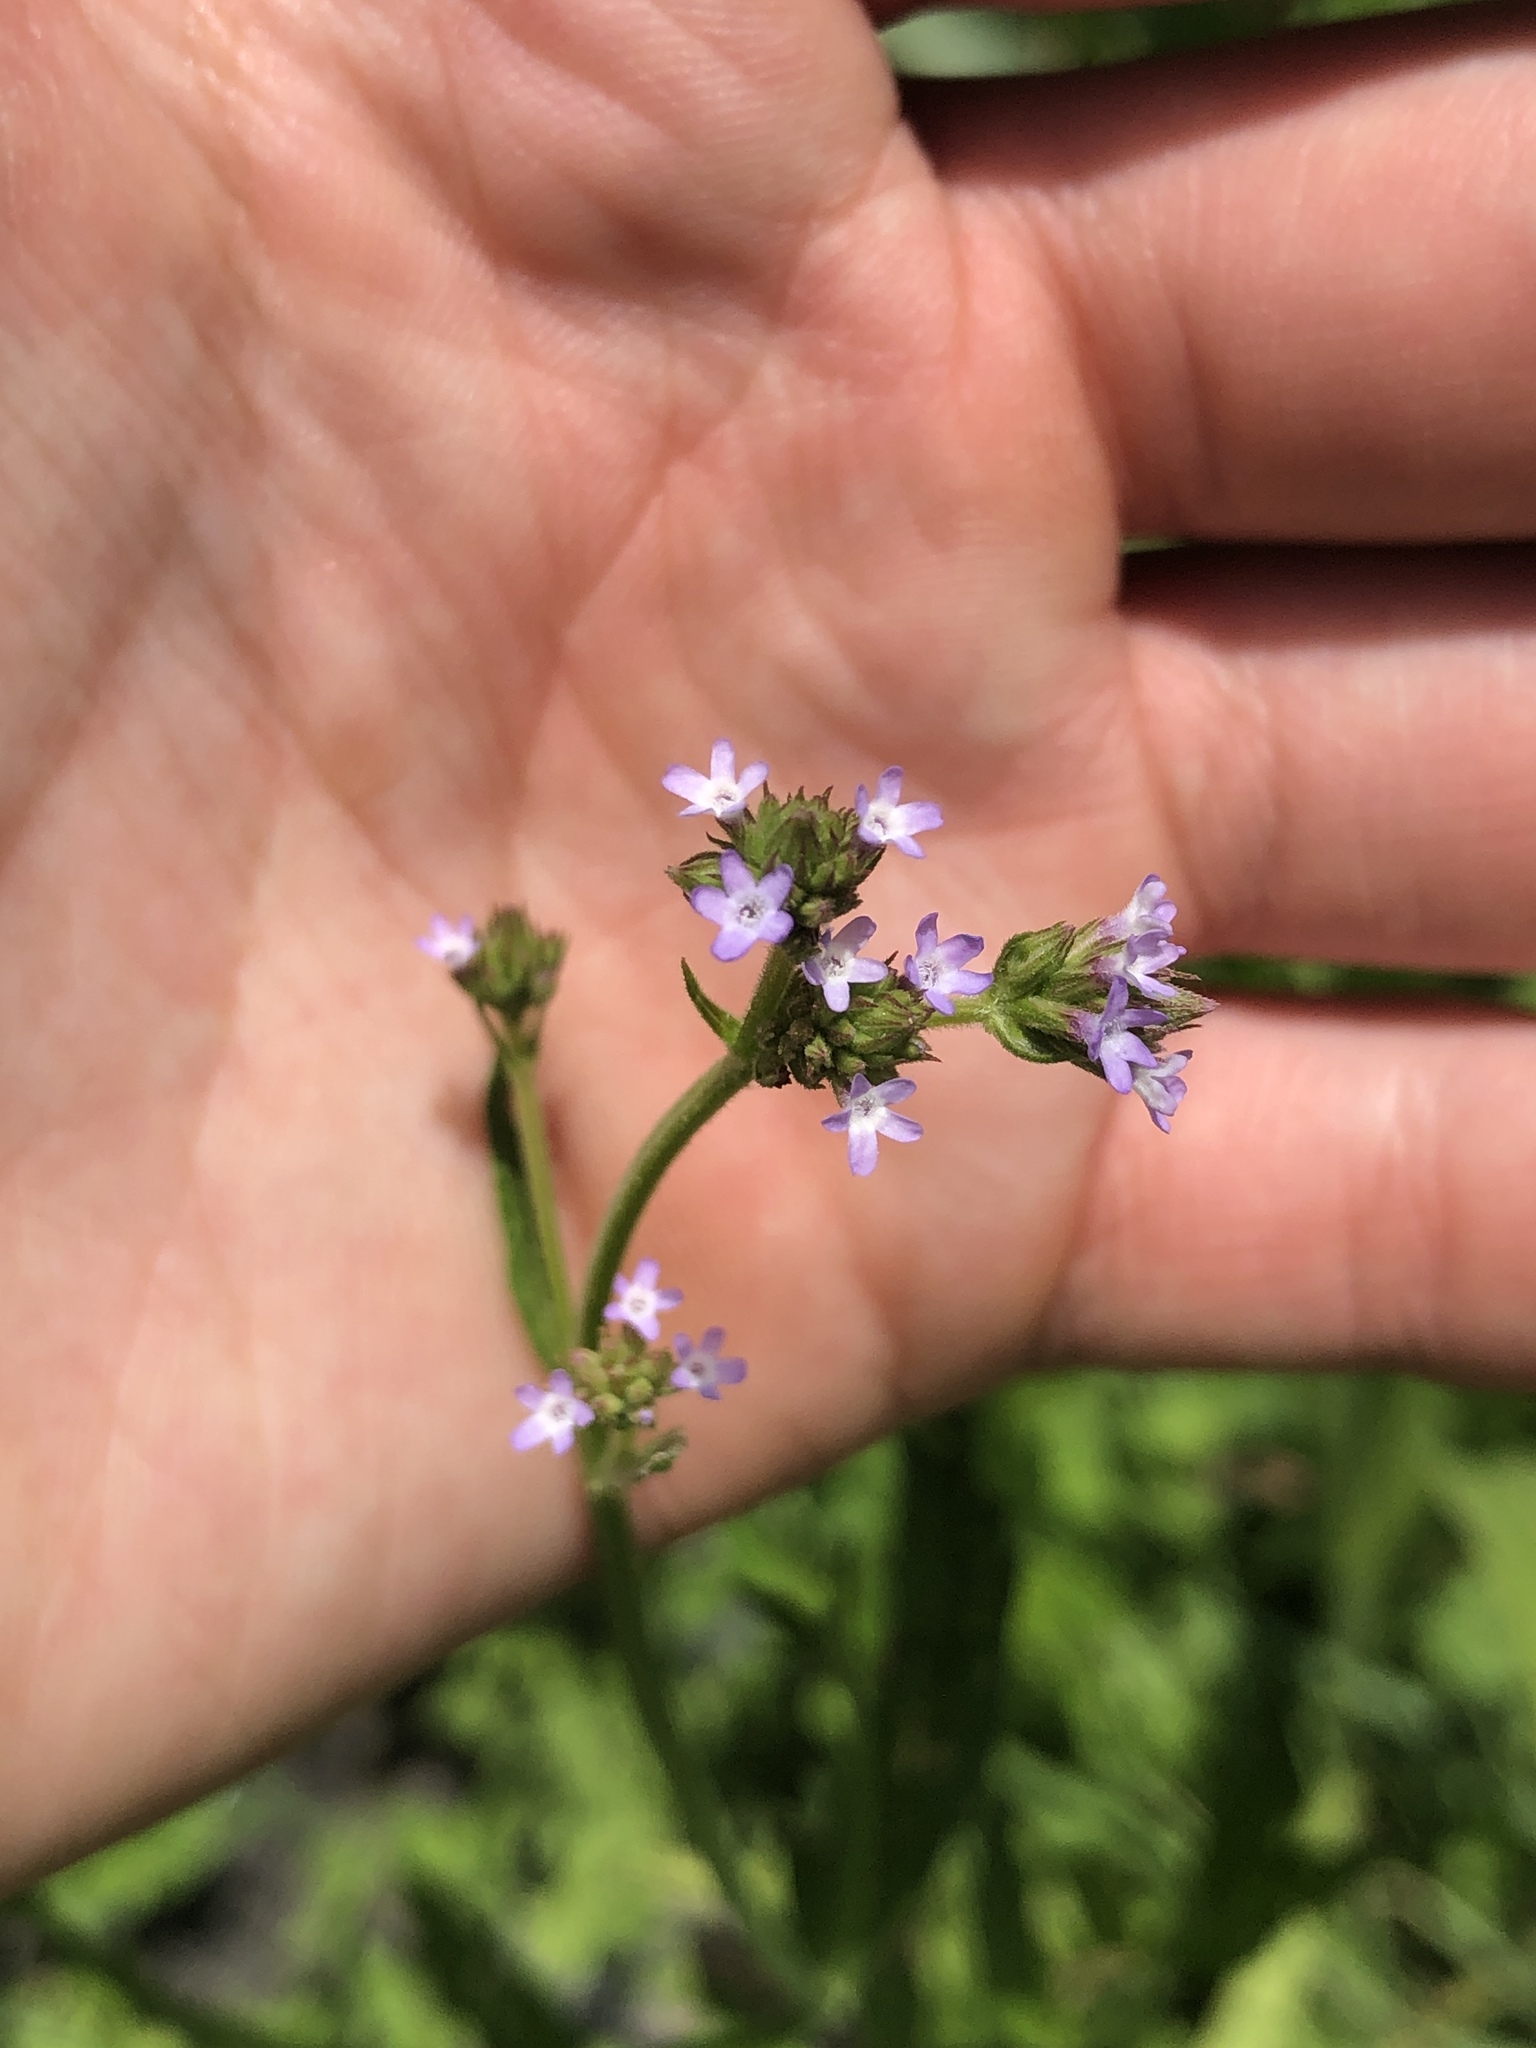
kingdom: Plantae
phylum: Tracheophyta
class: Magnoliopsida
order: Lamiales
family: Verbenaceae
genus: Verbena
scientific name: Verbena brasiliensis
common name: Brazilian vervain
